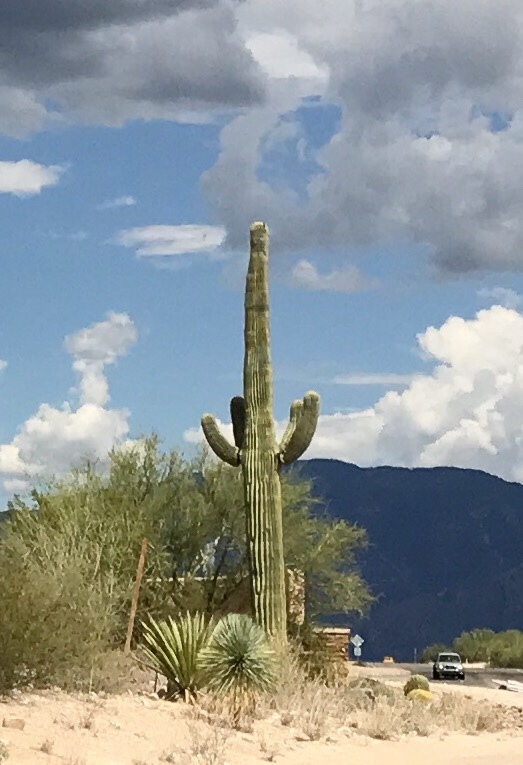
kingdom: Plantae
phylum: Tracheophyta
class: Magnoliopsida
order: Caryophyllales
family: Cactaceae
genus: Carnegiea
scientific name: Carnegiea gigantea
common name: Saguaro
